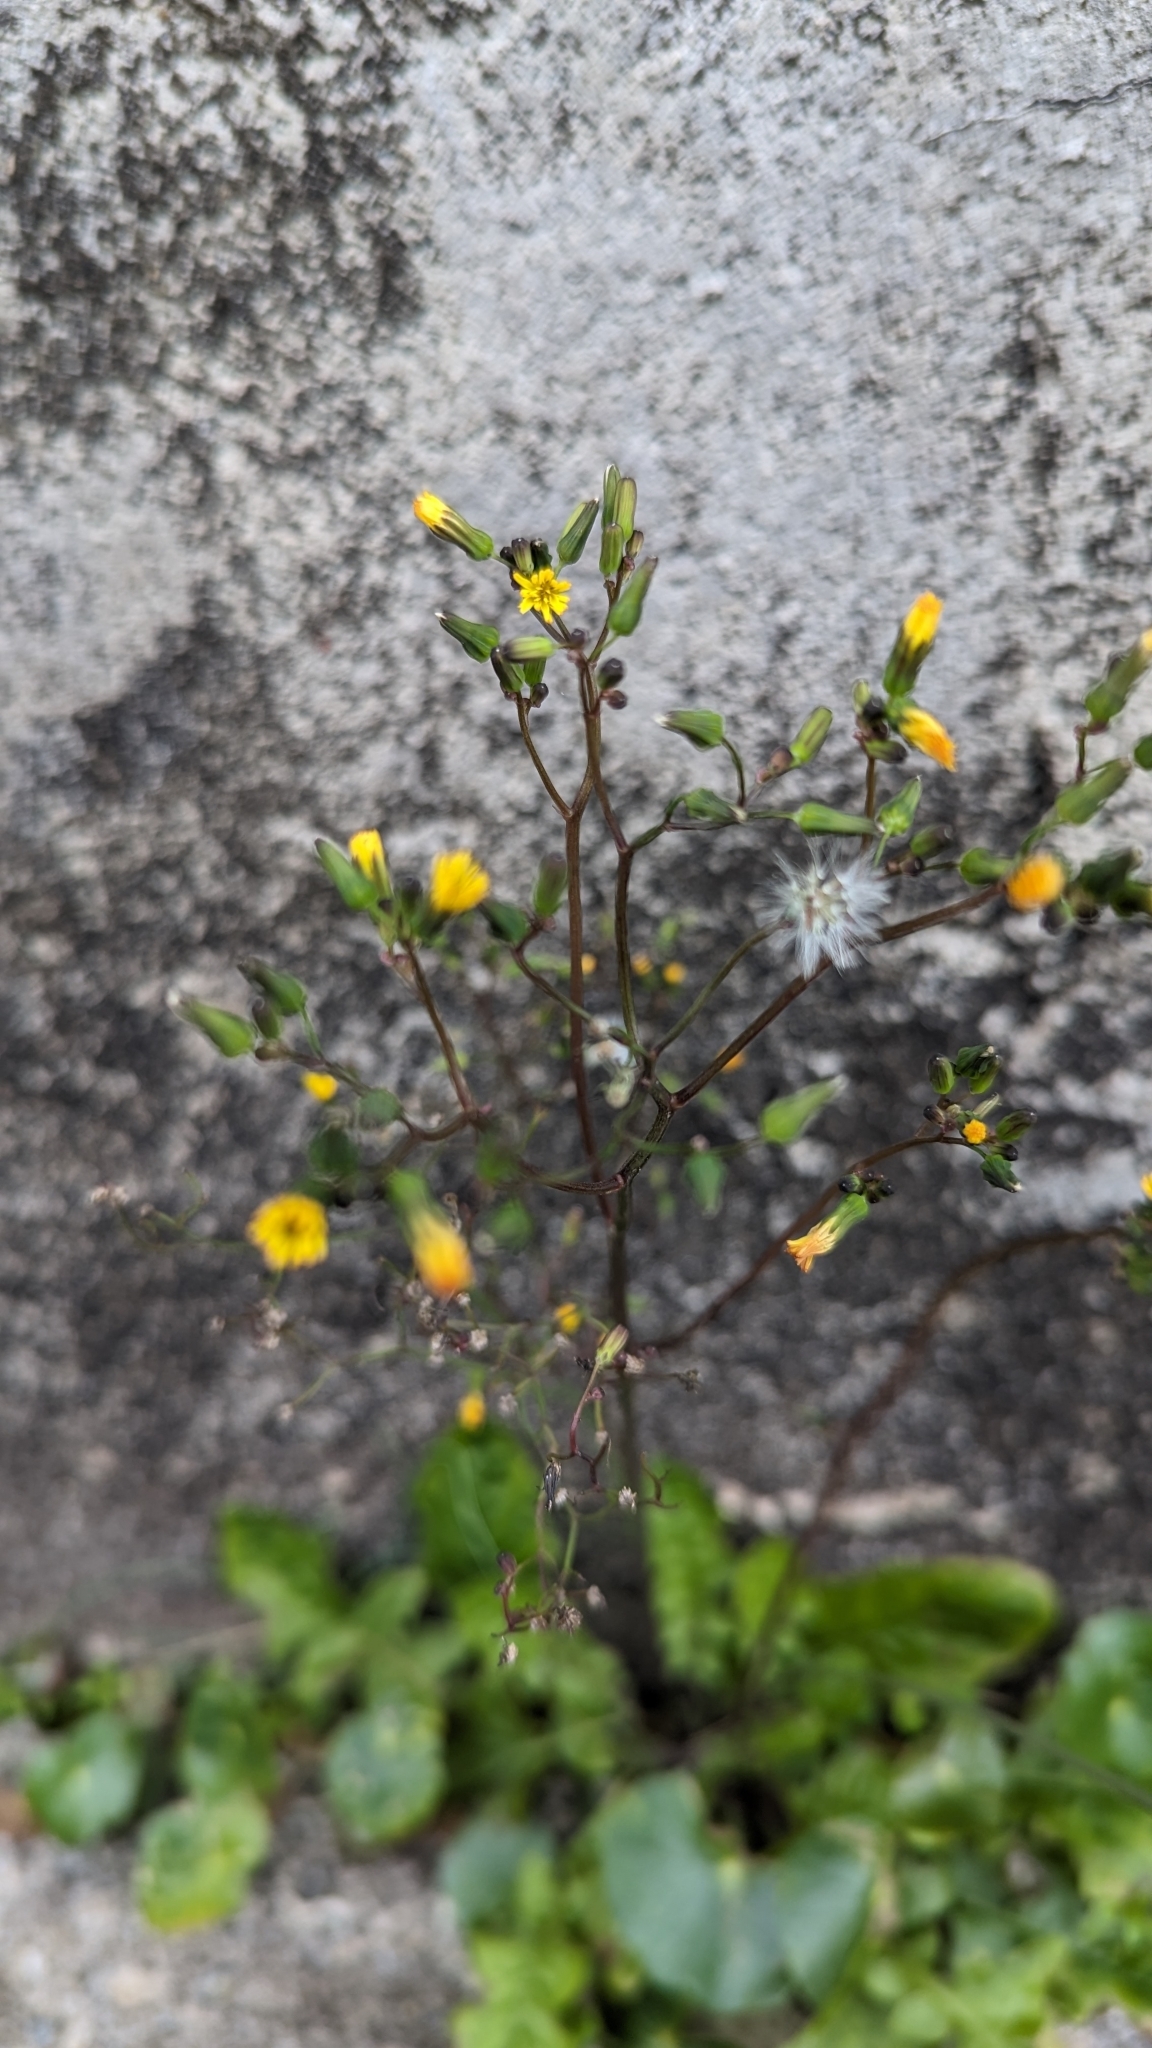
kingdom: Plantae
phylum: Tracheophyta
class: Magnoliopsida
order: Asterales
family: Asteraceae
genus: Youngia
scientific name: Youngia japonica
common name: Oriental false hawksbeard
